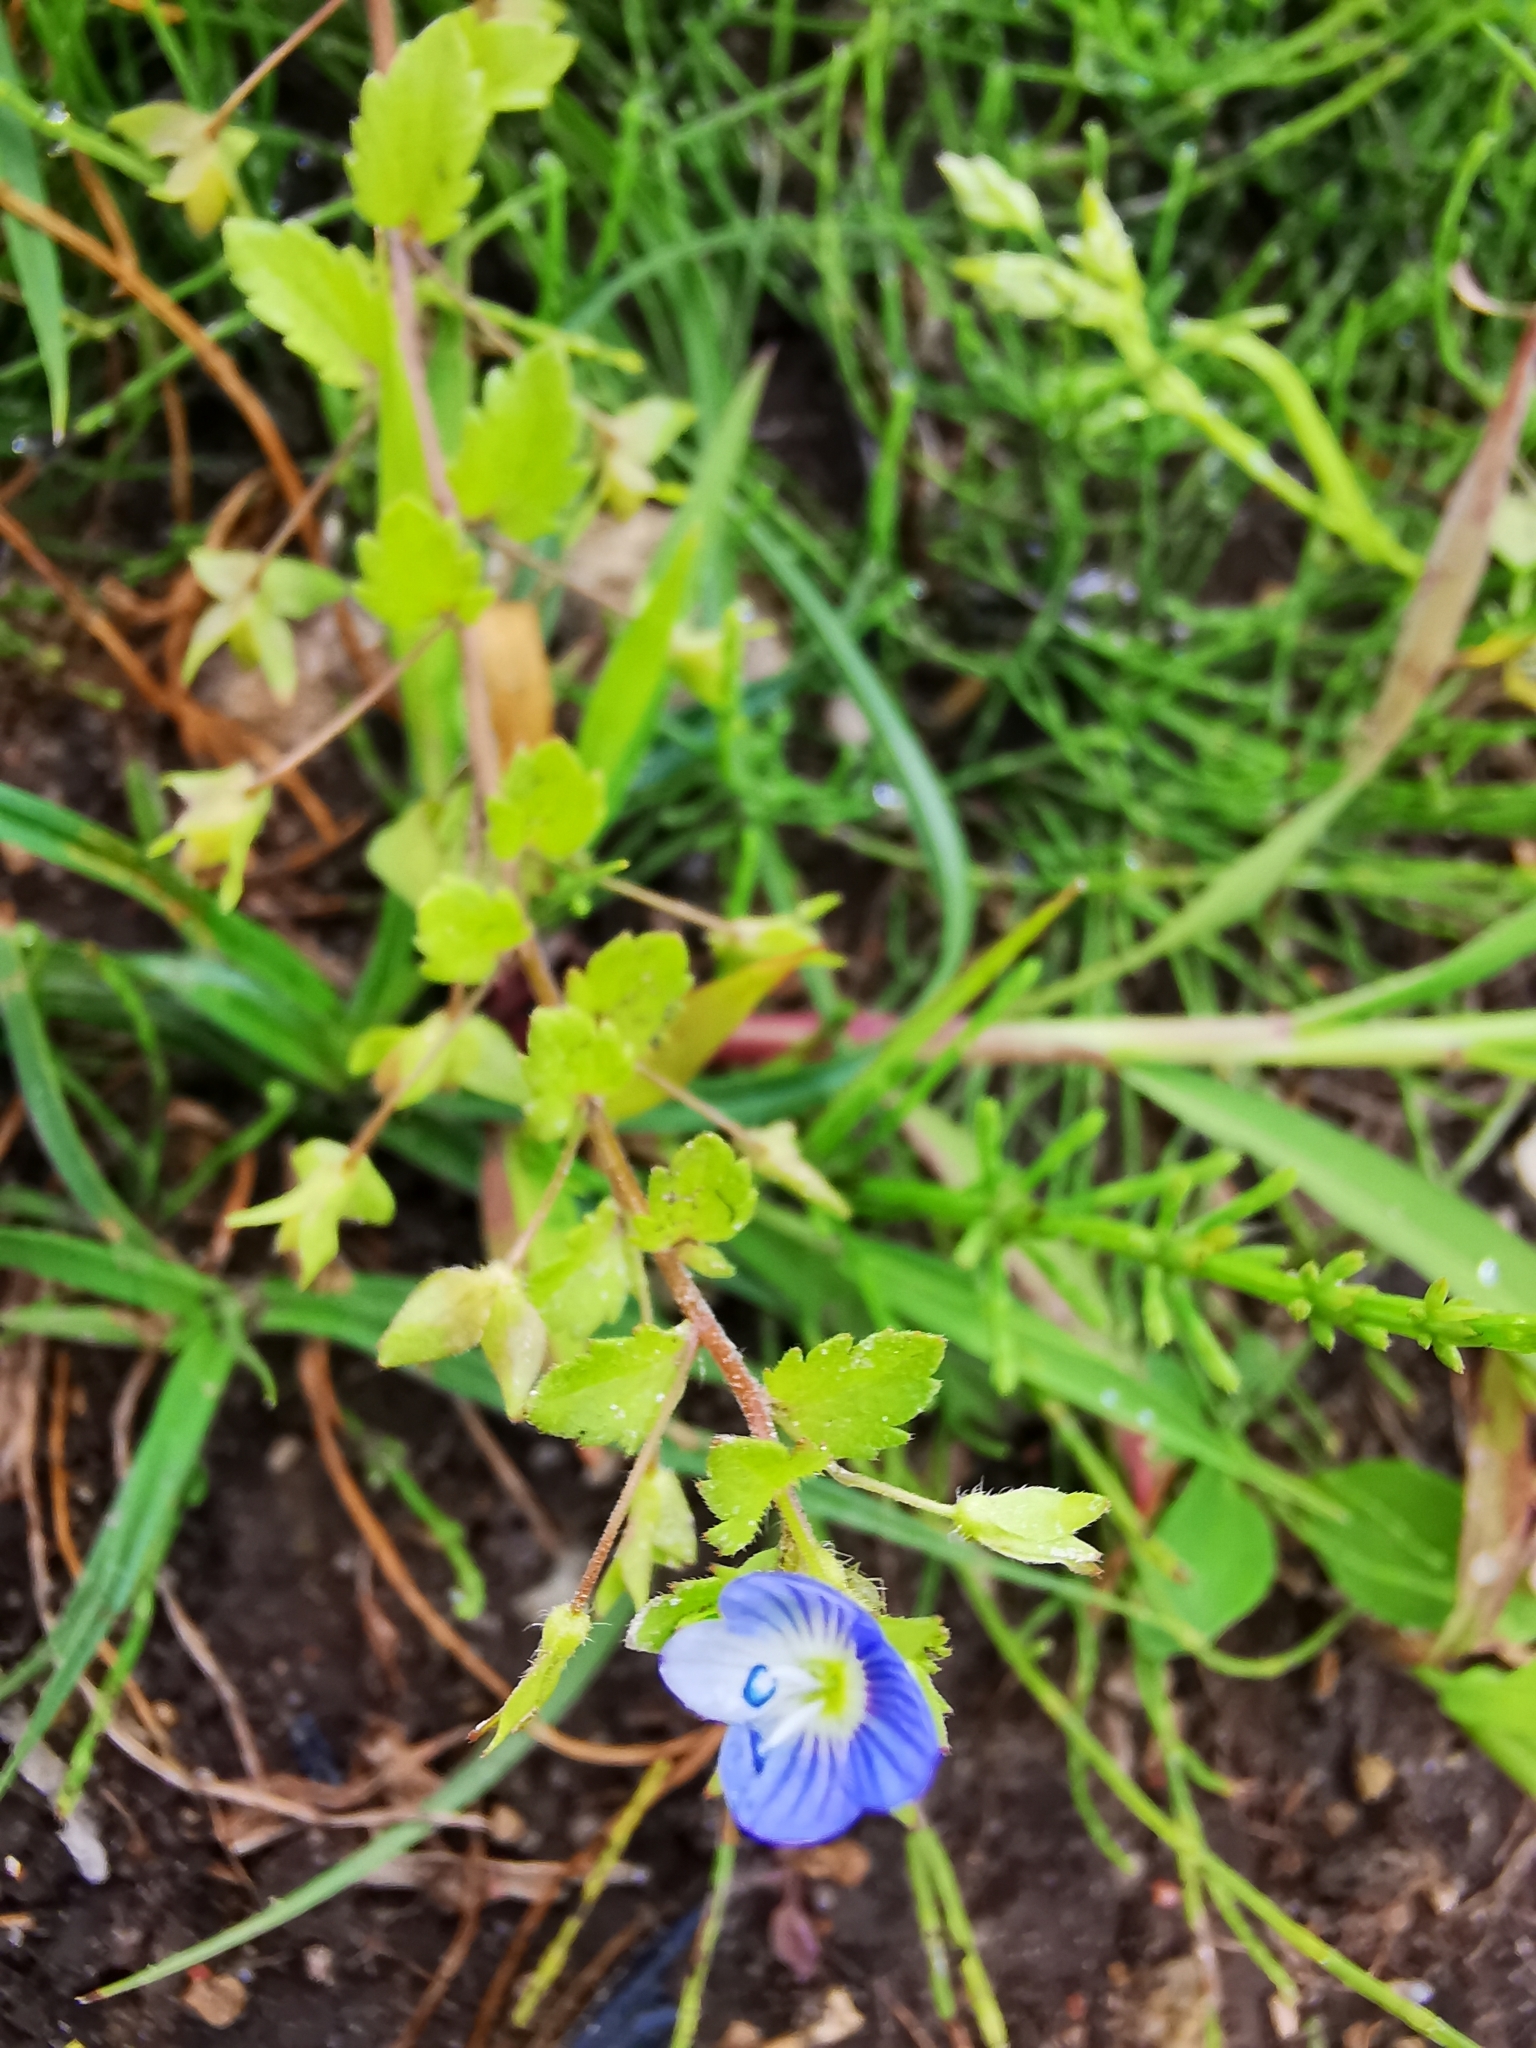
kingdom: Plantae
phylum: Tracheophyta
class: Magnoliopsida
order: Lamiales
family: Plantaginaceae
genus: Veronica
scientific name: Veronica persica
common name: Common field-speedwell
